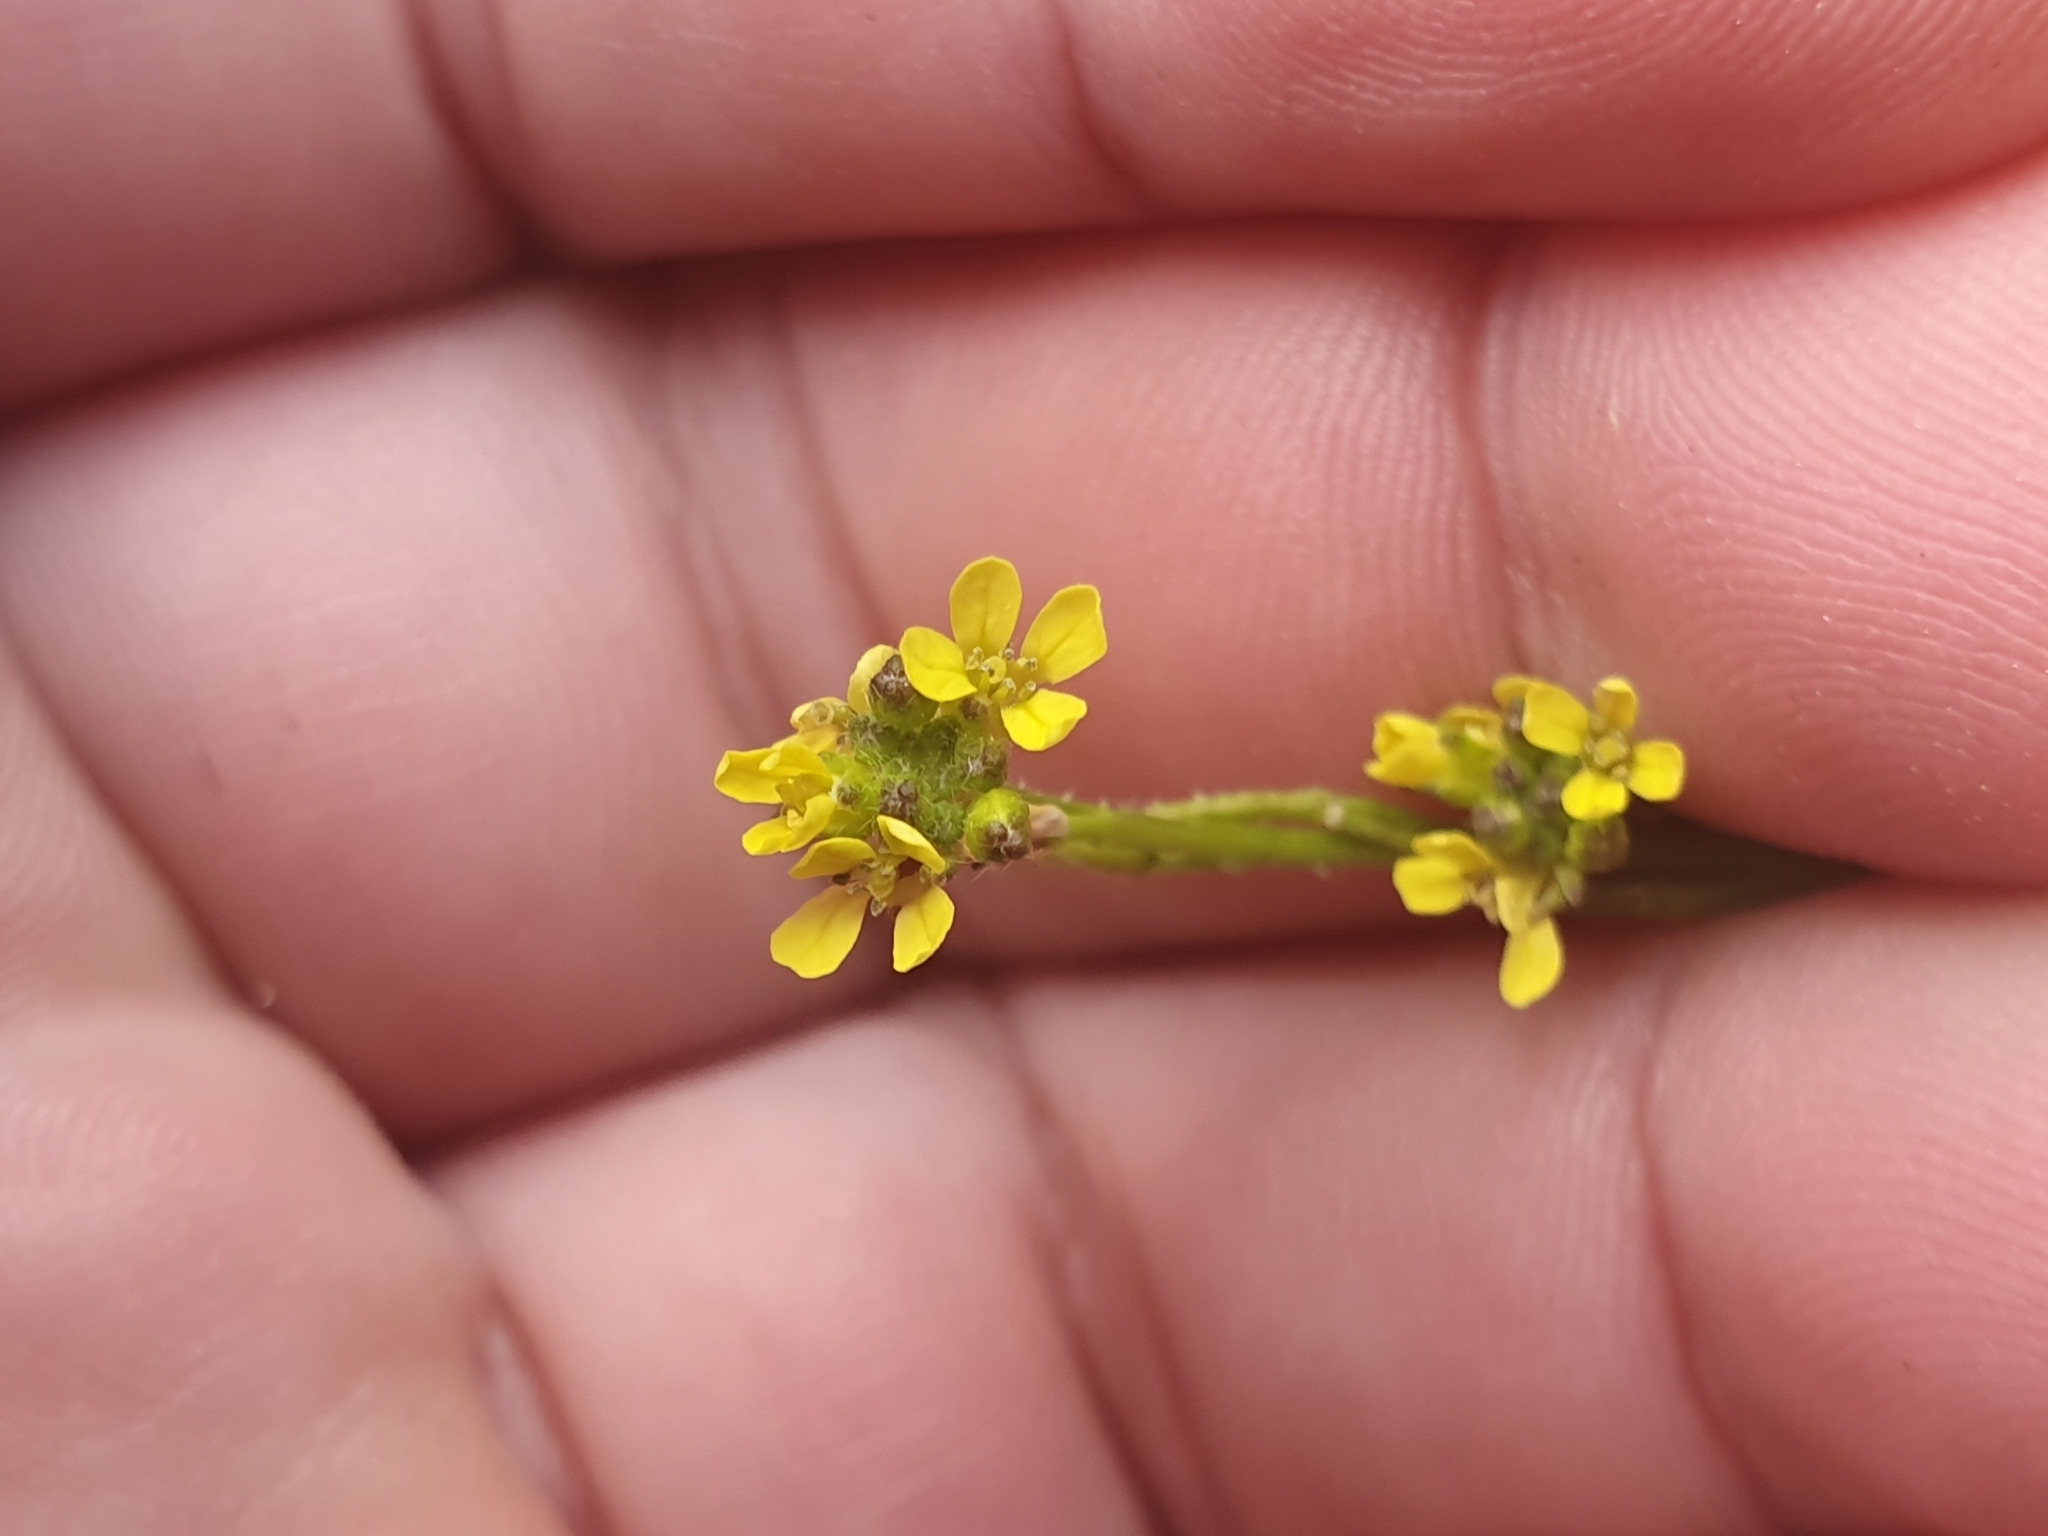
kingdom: Plantae
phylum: Tracheophyta
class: Magnoliopsida
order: Brassicales
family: Brassicaceae
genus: Sisymbrium
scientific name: Sisymbrium officinale
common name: Hedge mustard
